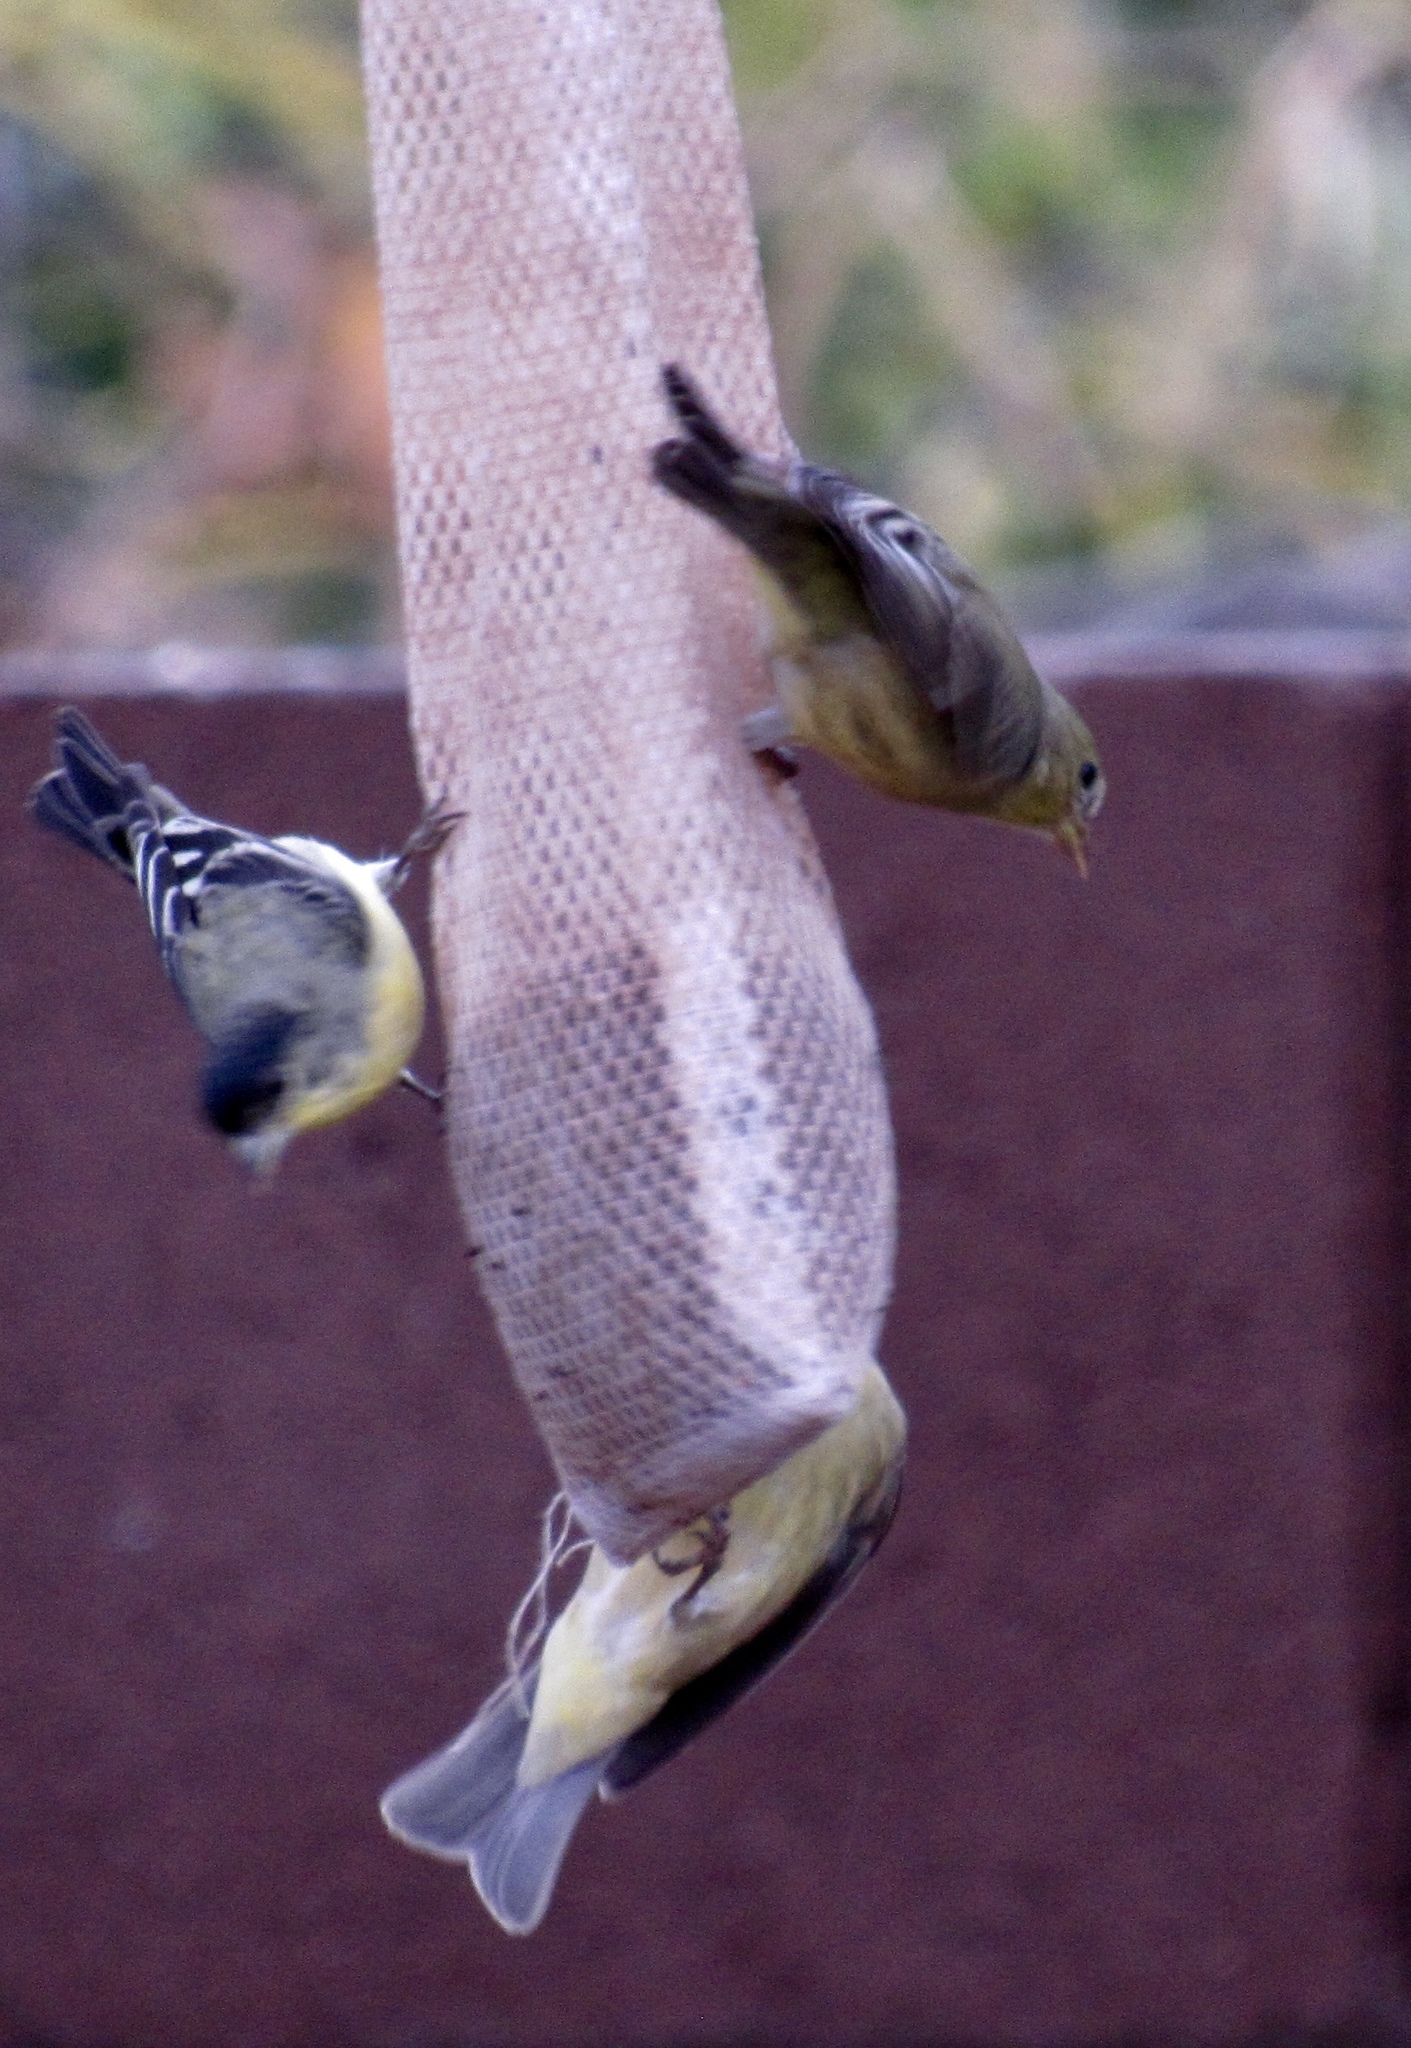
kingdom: Animalia
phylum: Chordata
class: Aves
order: Passeriformes
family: Fringillidae
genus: Spinus
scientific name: Spinus psaltria
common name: Lesser goldfinch
